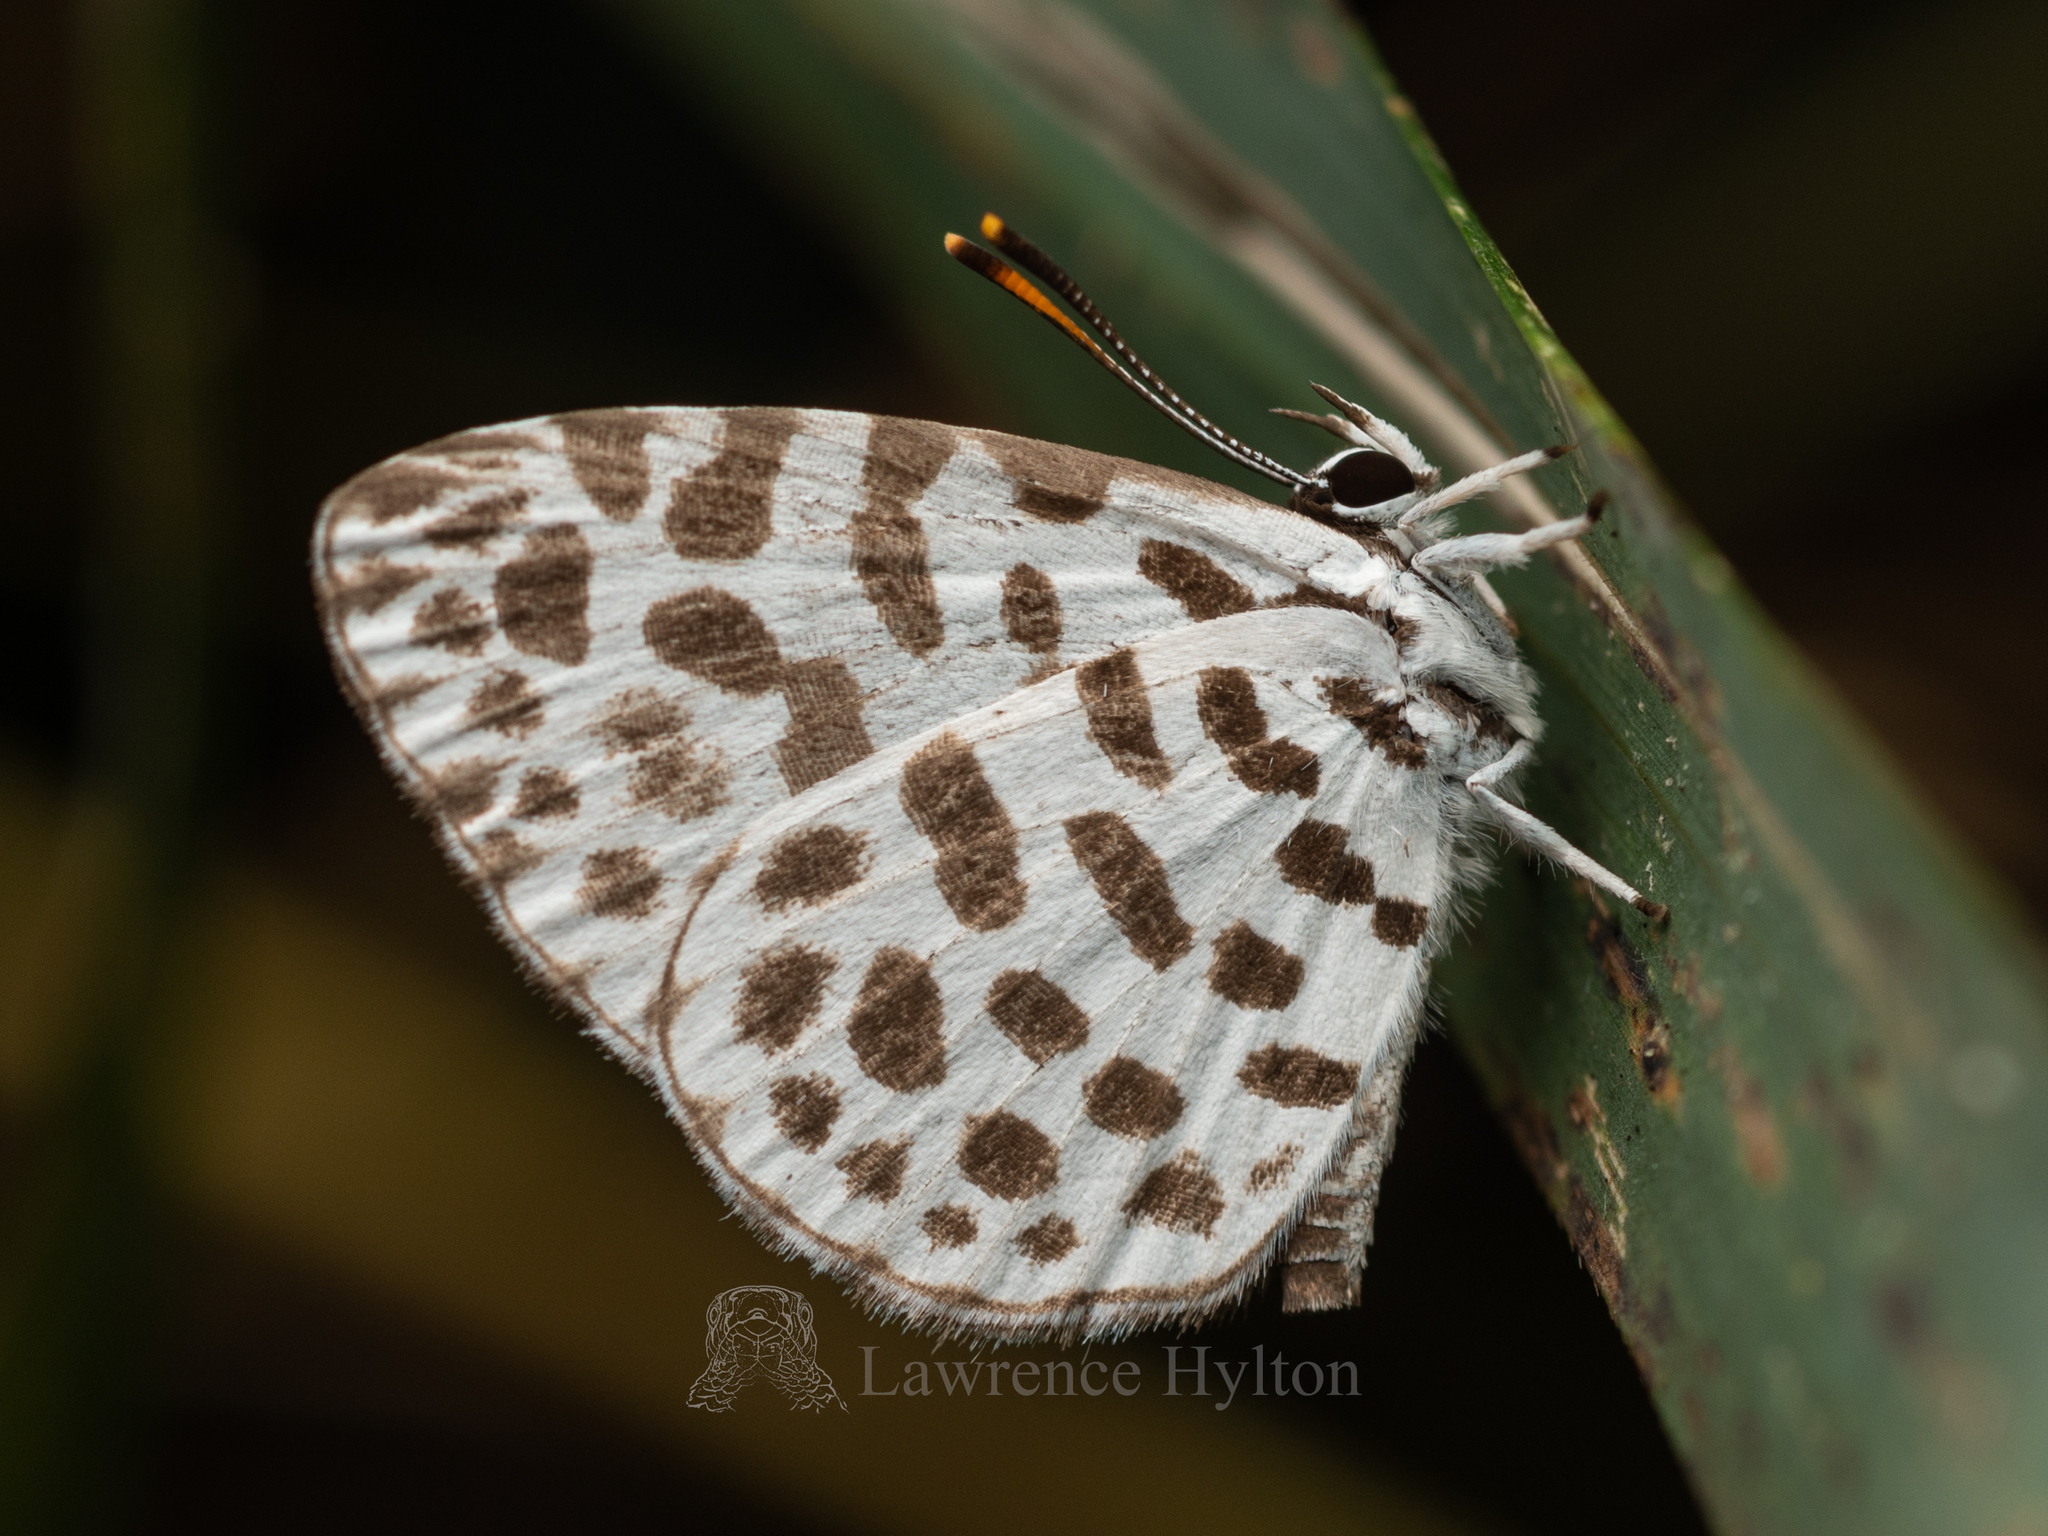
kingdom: Animalia
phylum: Arthropoda
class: Insecta
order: Lepidoptera
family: Lycaenidae
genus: Taraka
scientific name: Taraka hamada
